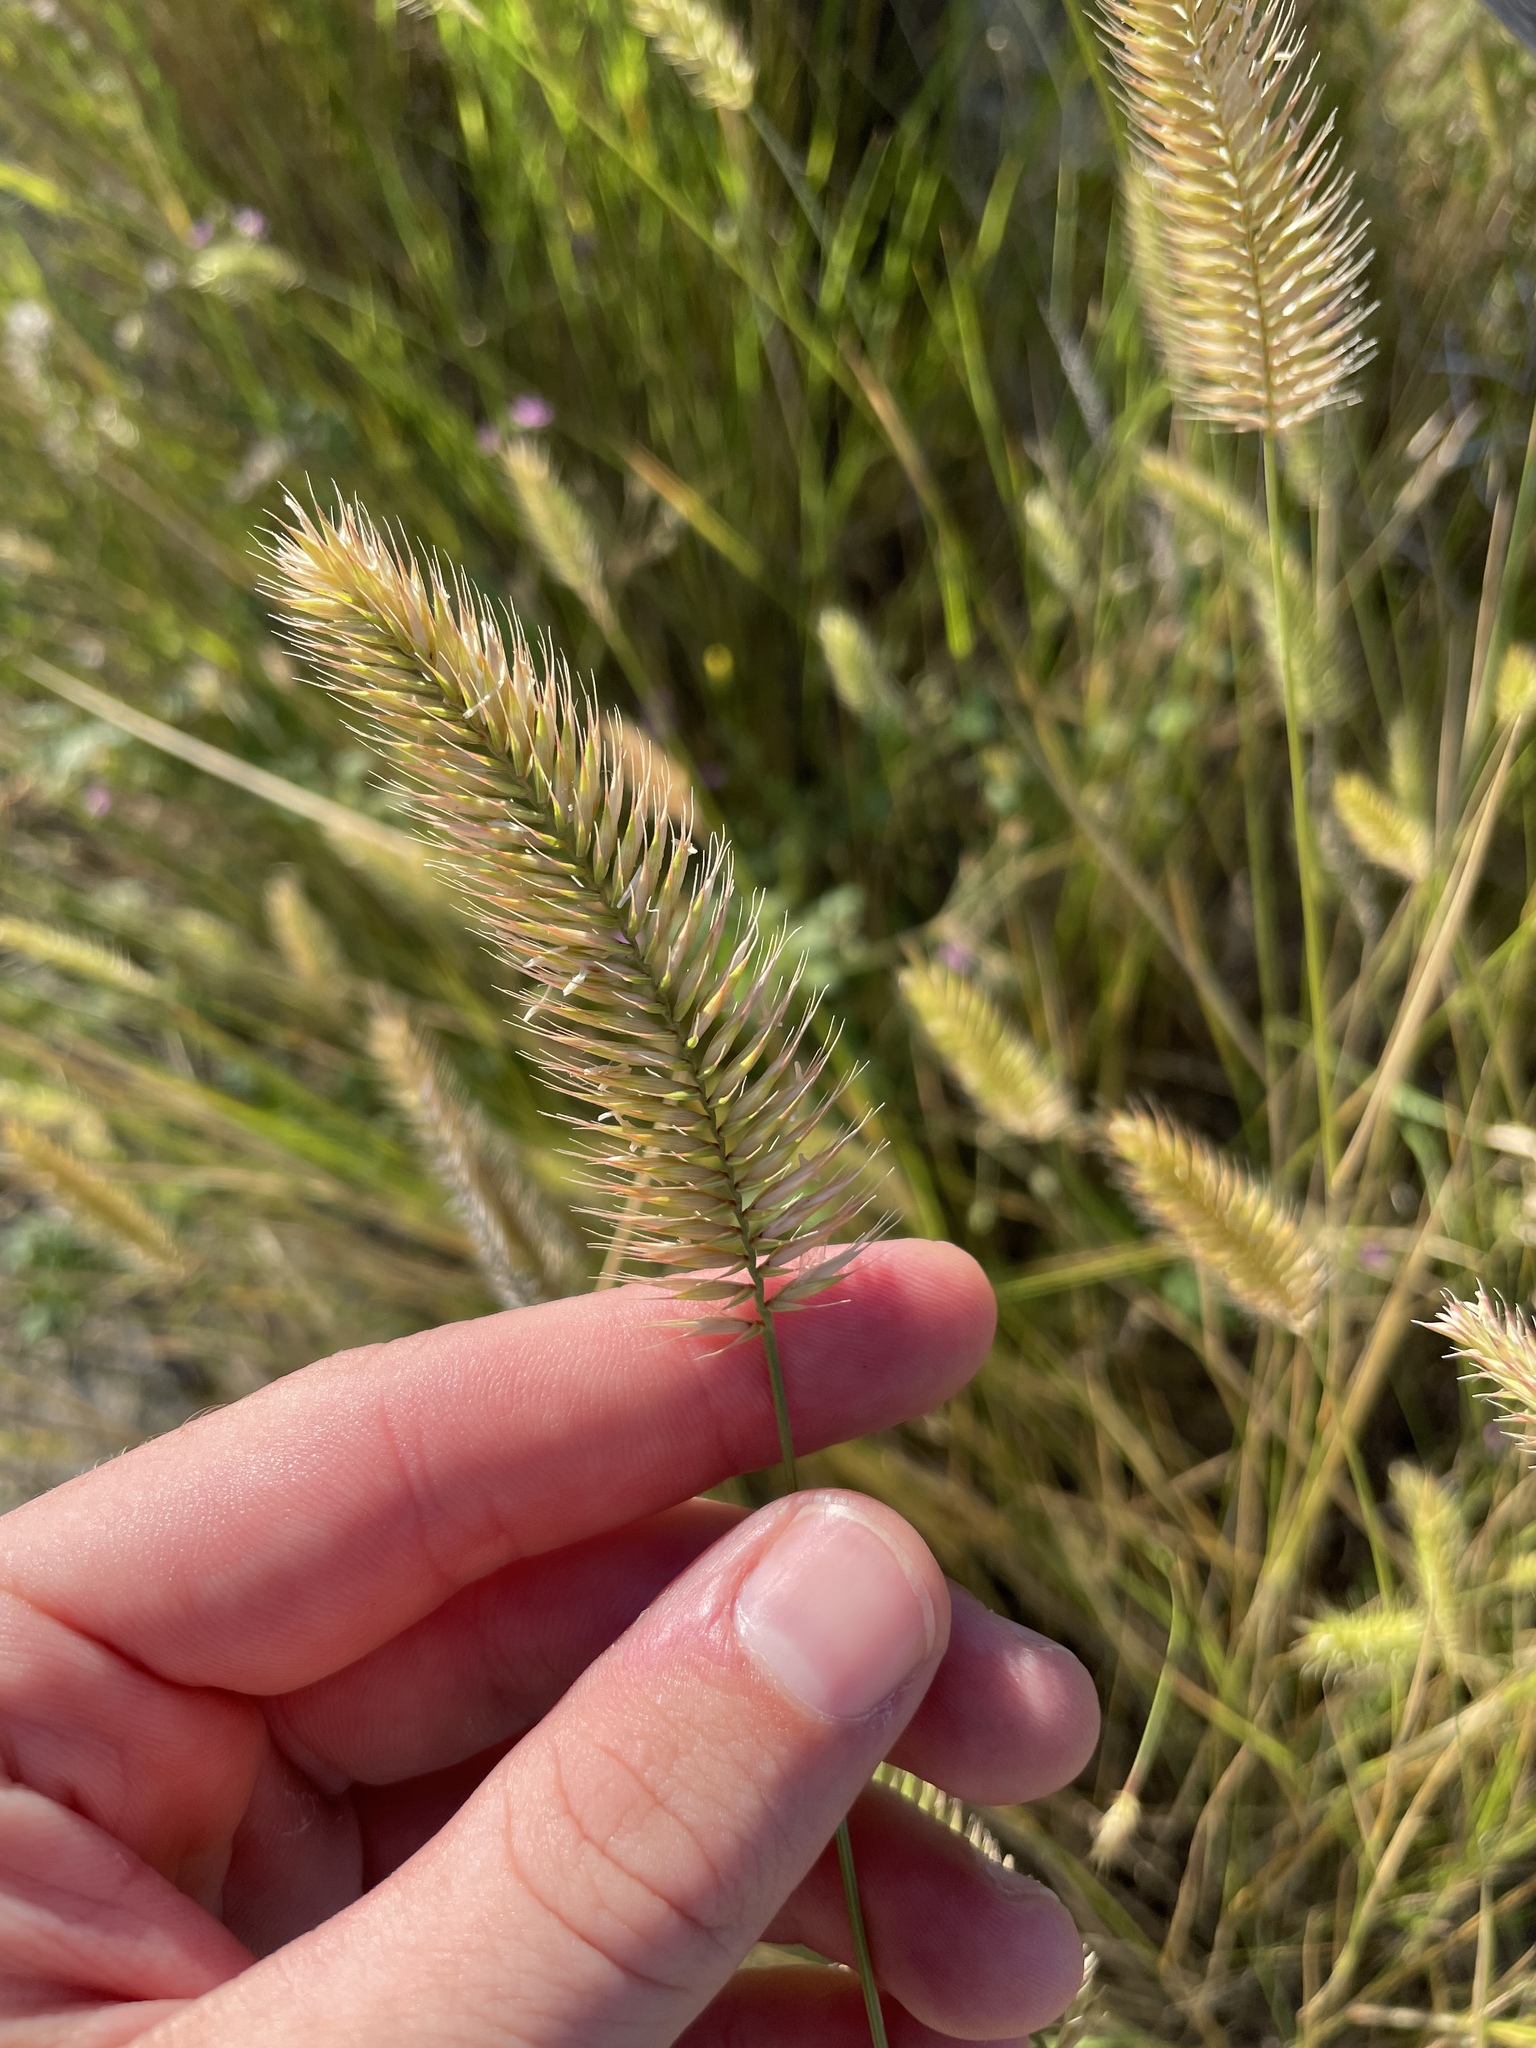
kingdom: Plantae
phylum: Tracheophyta
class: Liliopsida
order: Poales
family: Poaceae
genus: Agropyron
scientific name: Agropyron cristatum
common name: Crested wheatgrass
